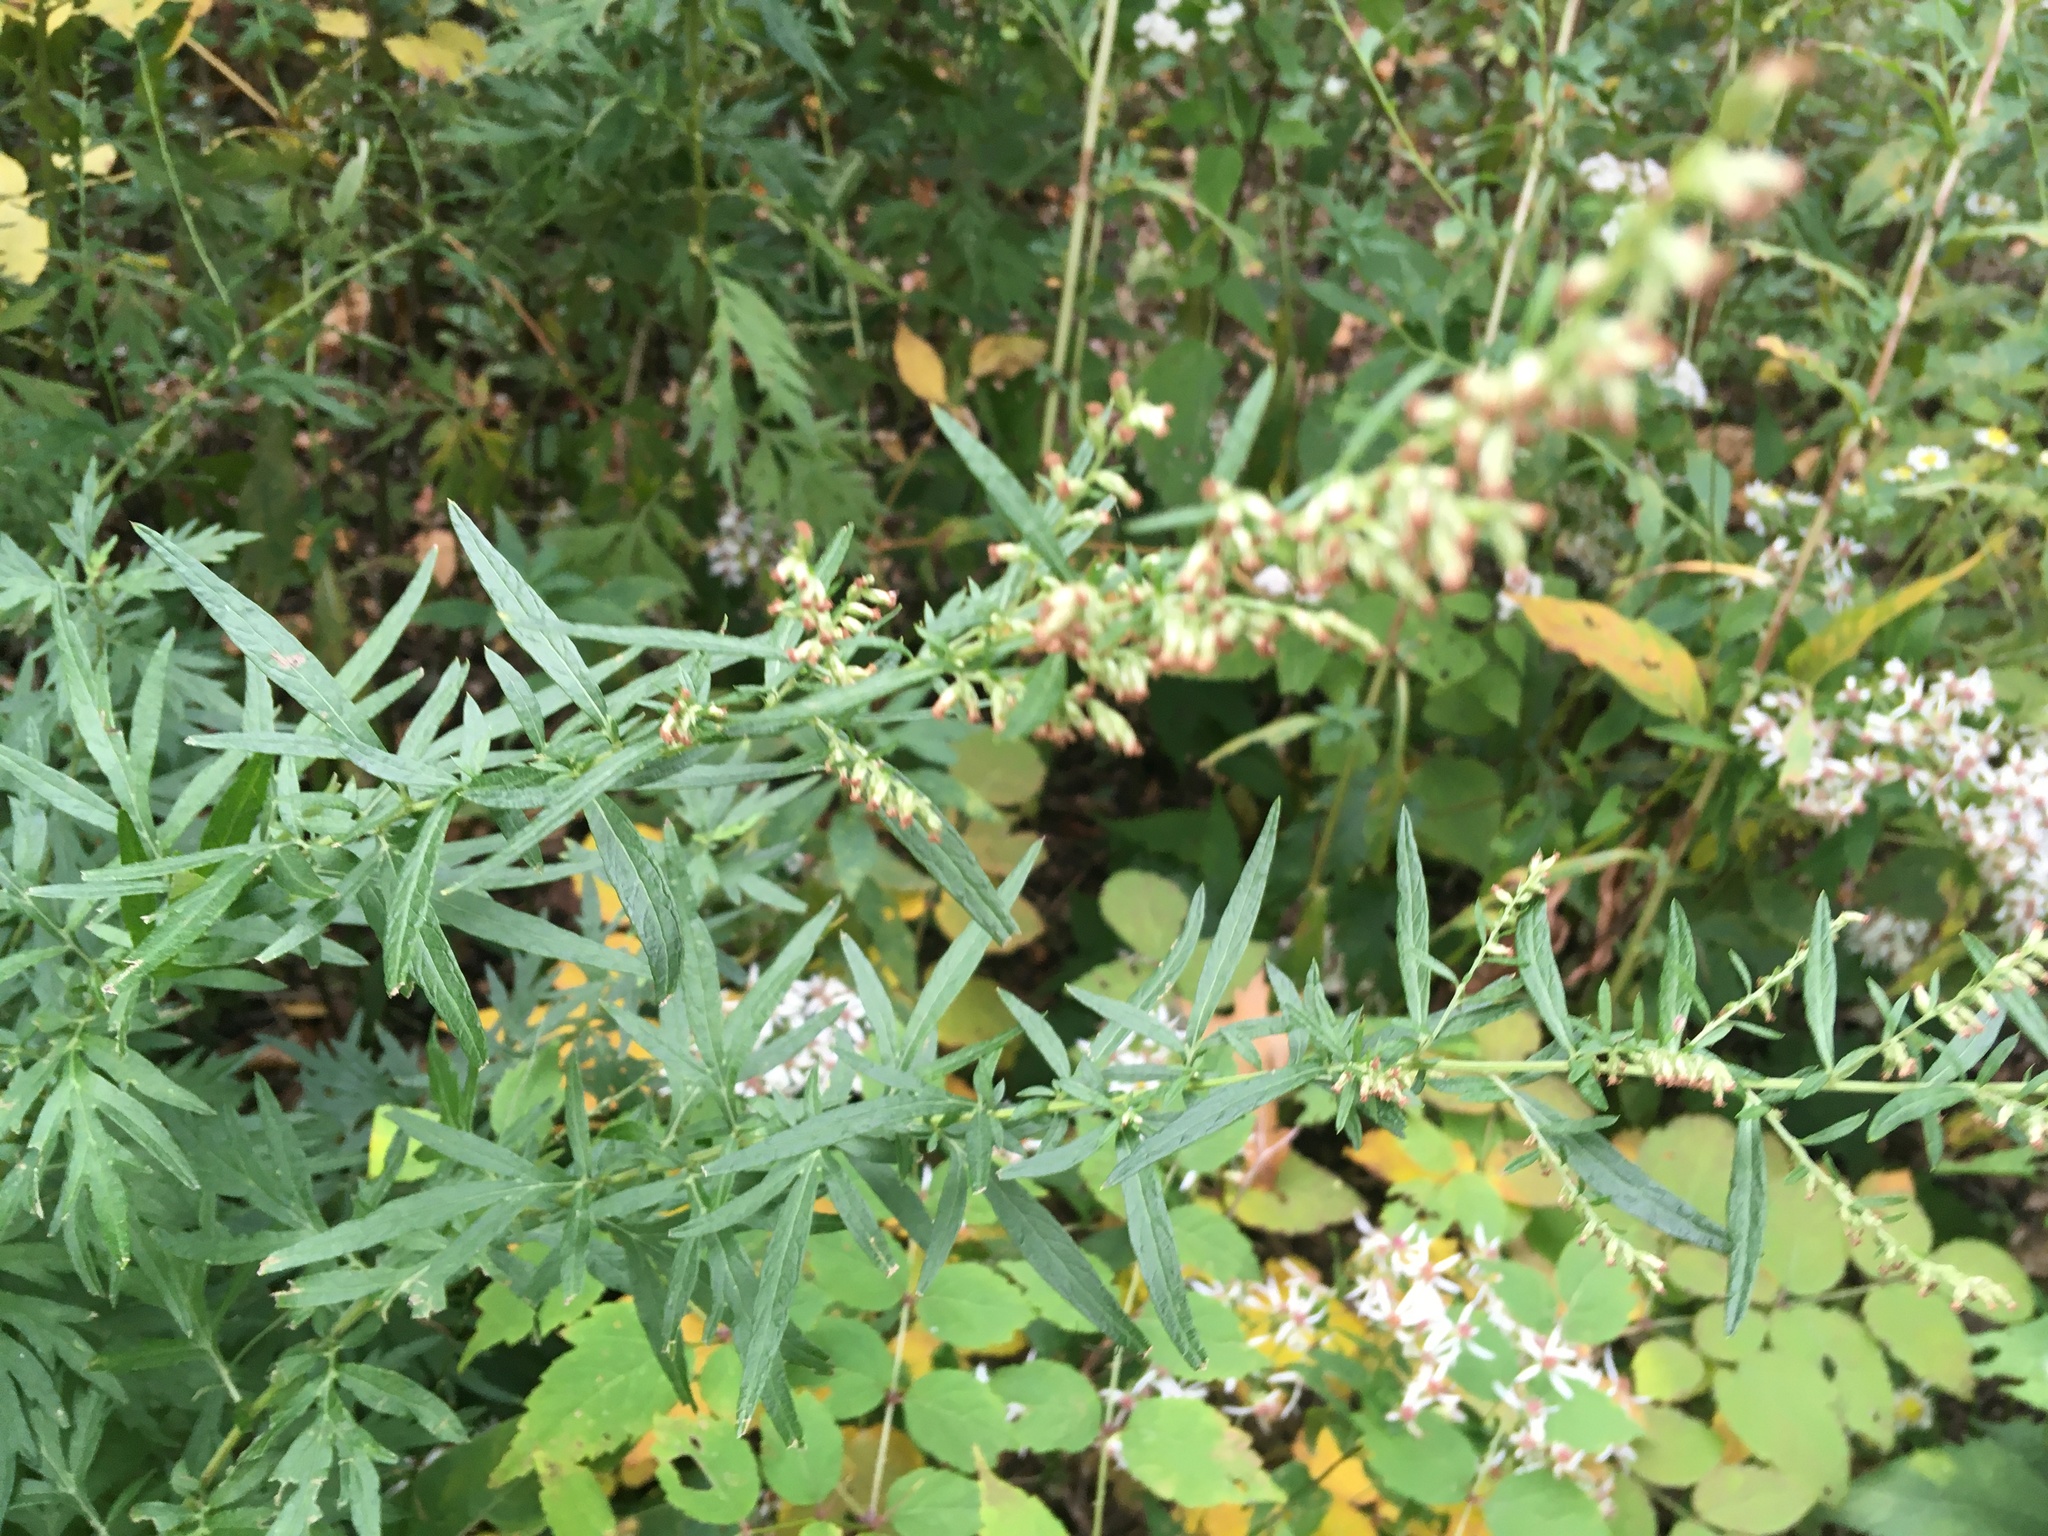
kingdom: Plantae
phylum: Tracheophyta
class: Magnoliopsida
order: Asterales
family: Asteraceae
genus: Artemisia
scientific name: Artemisia vulgaris
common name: Mugwort
